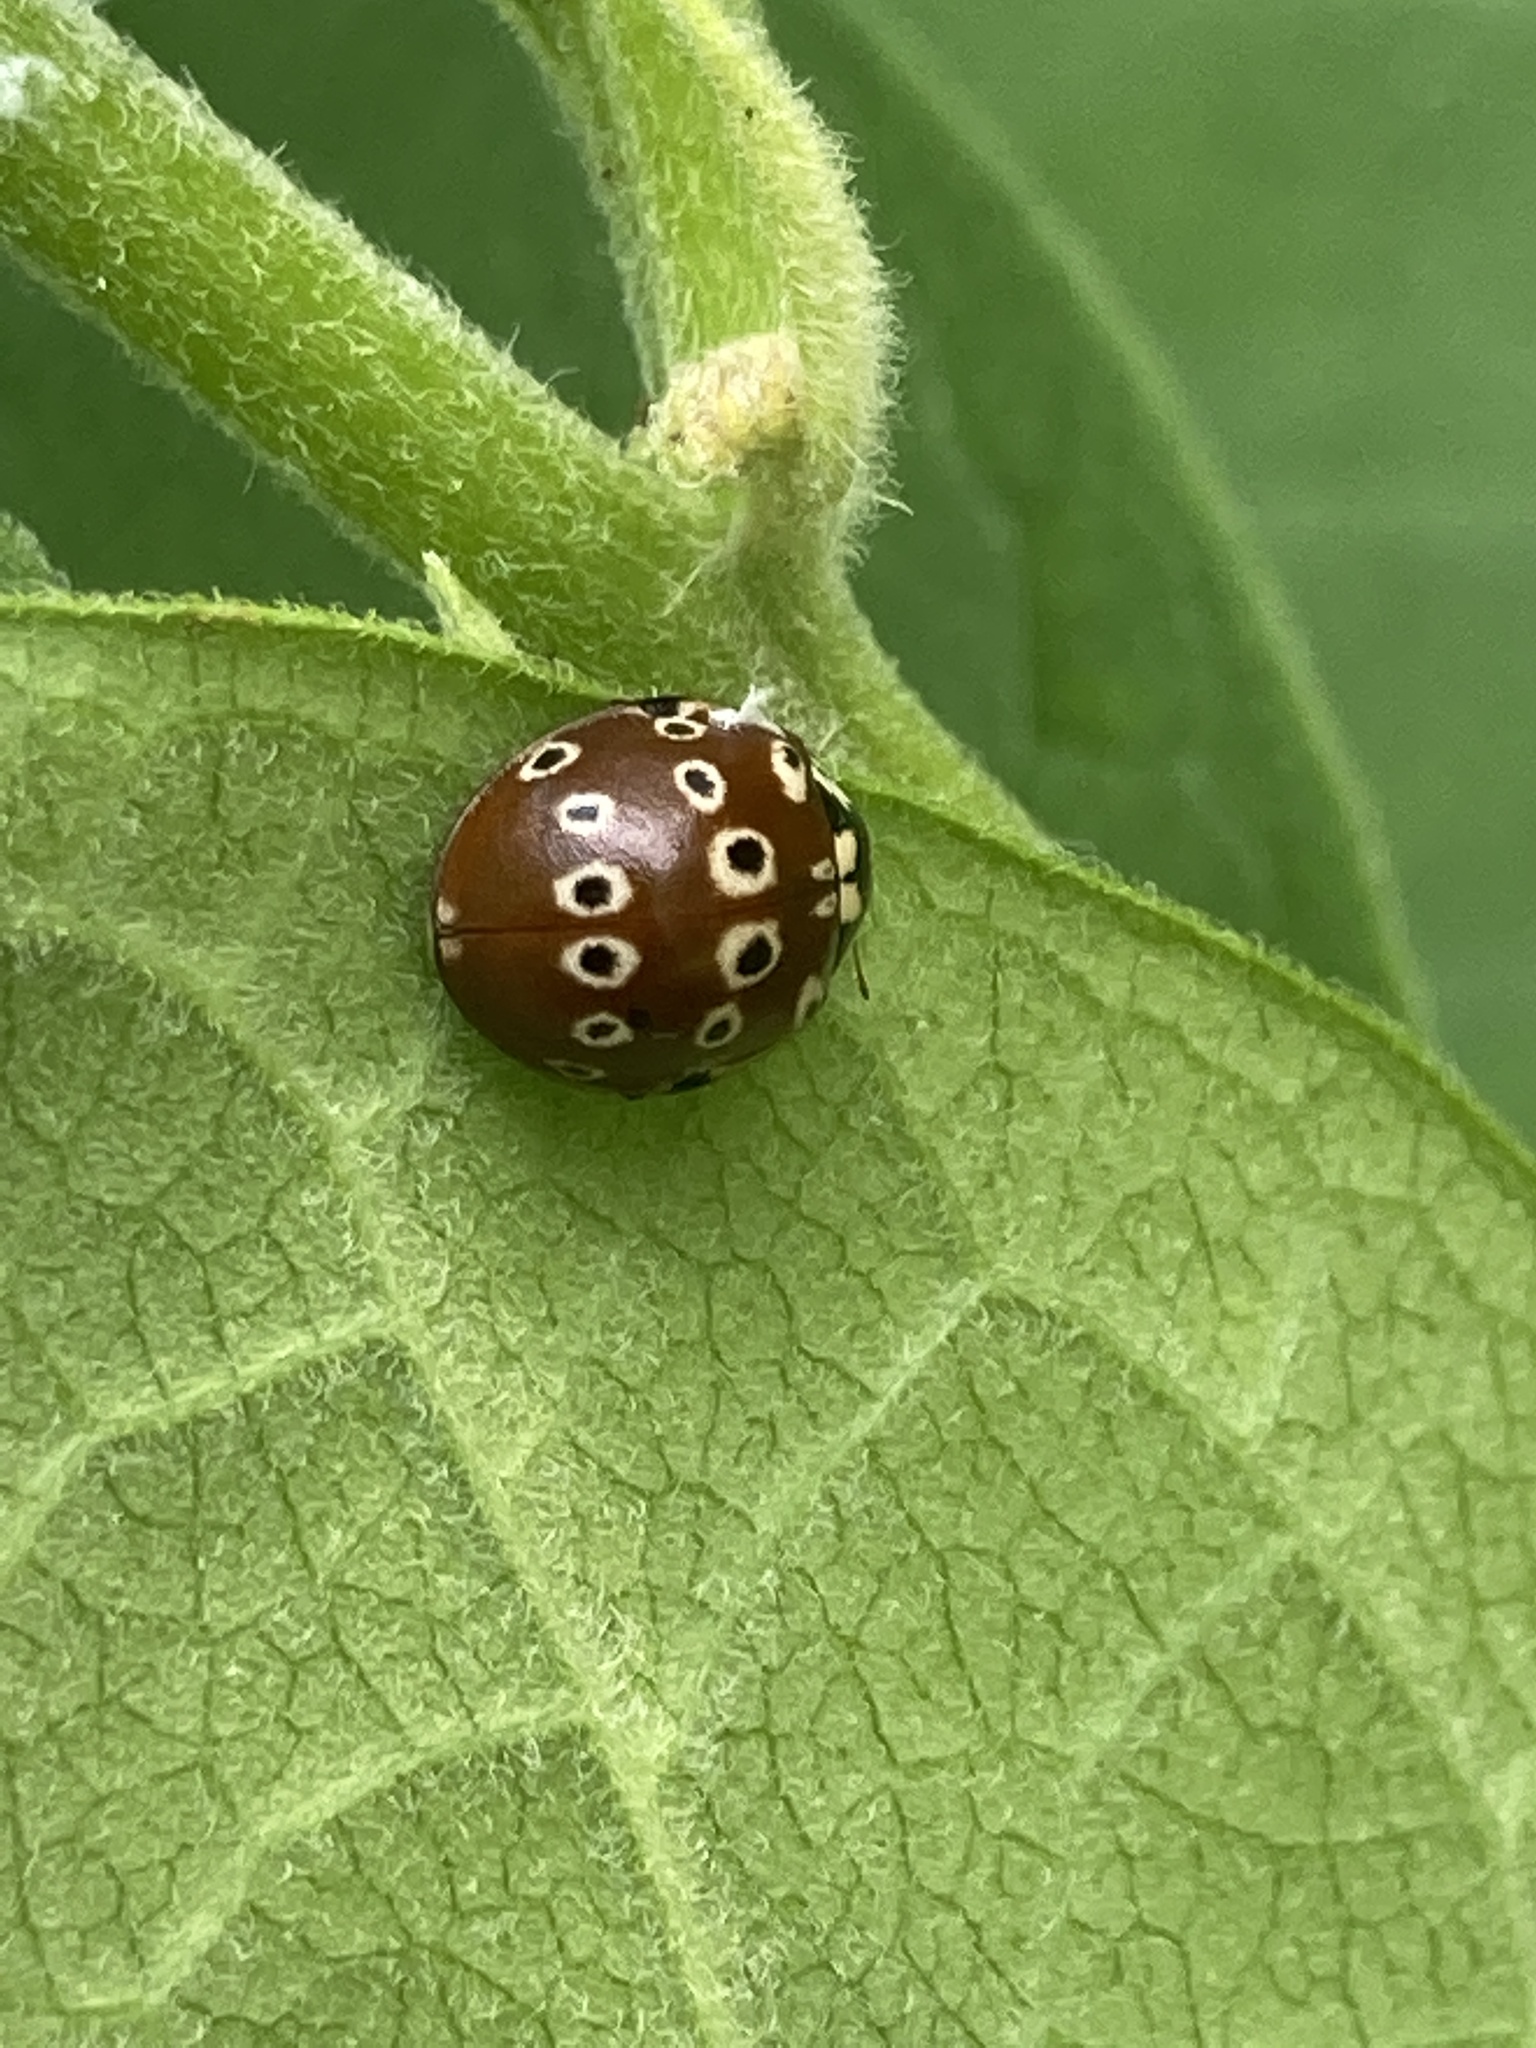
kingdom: Animalia
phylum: Arthropoda
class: Insecta
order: Coleoptera
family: Coccinellidae
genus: Anatis
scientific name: Anatis mali
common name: Eye-spotted lady beetle
